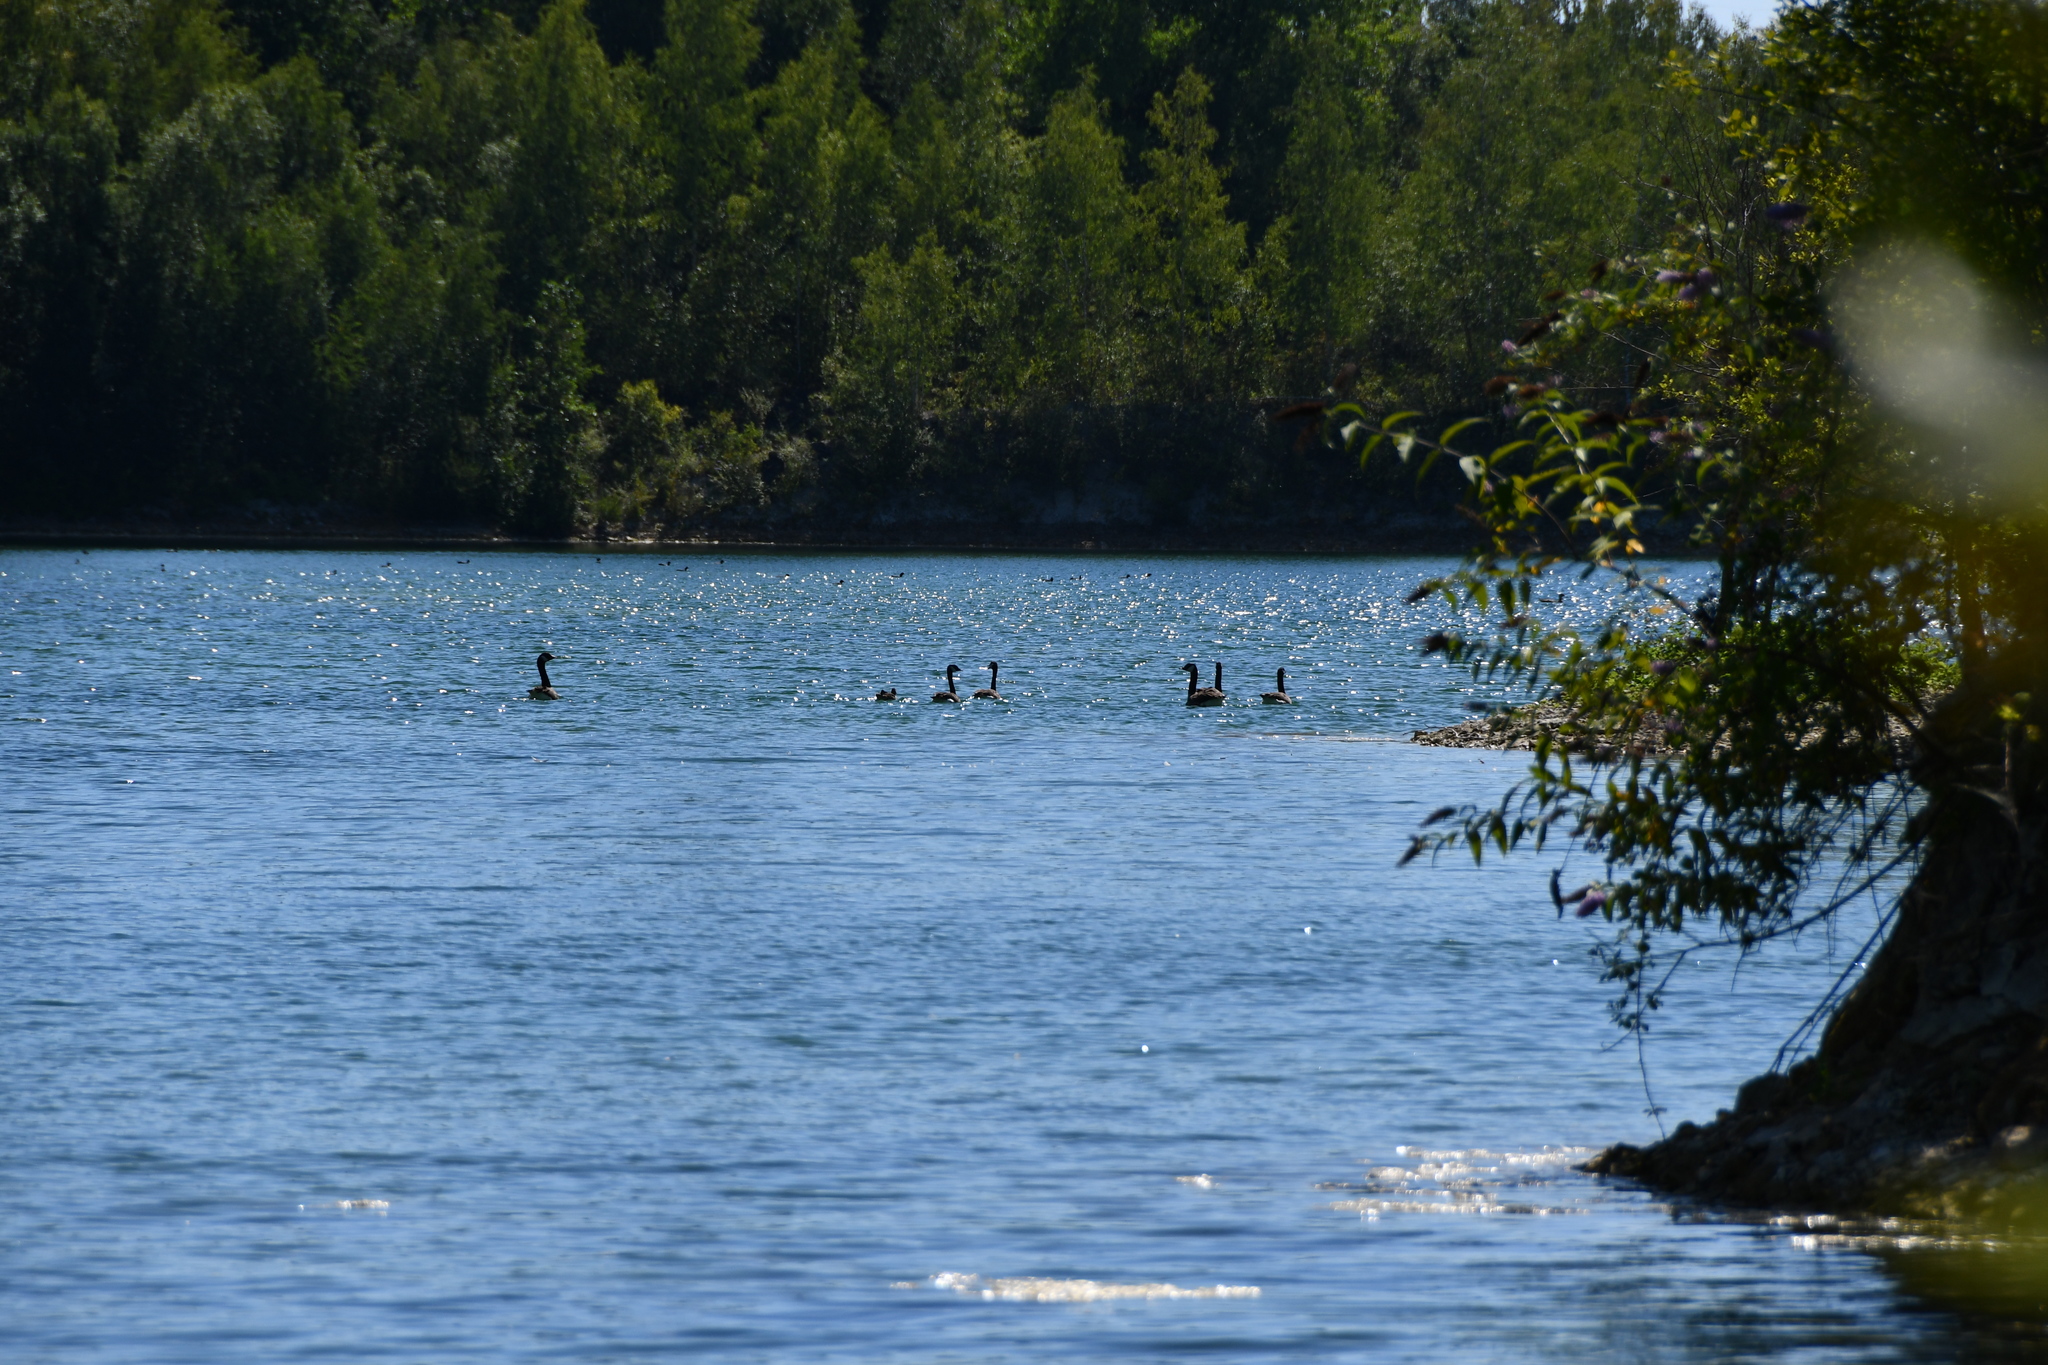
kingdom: Animalia
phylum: Chordata
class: Aves
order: Anseriformes
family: Anatidae
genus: Branta
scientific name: Branta canadensis
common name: Canada goose
